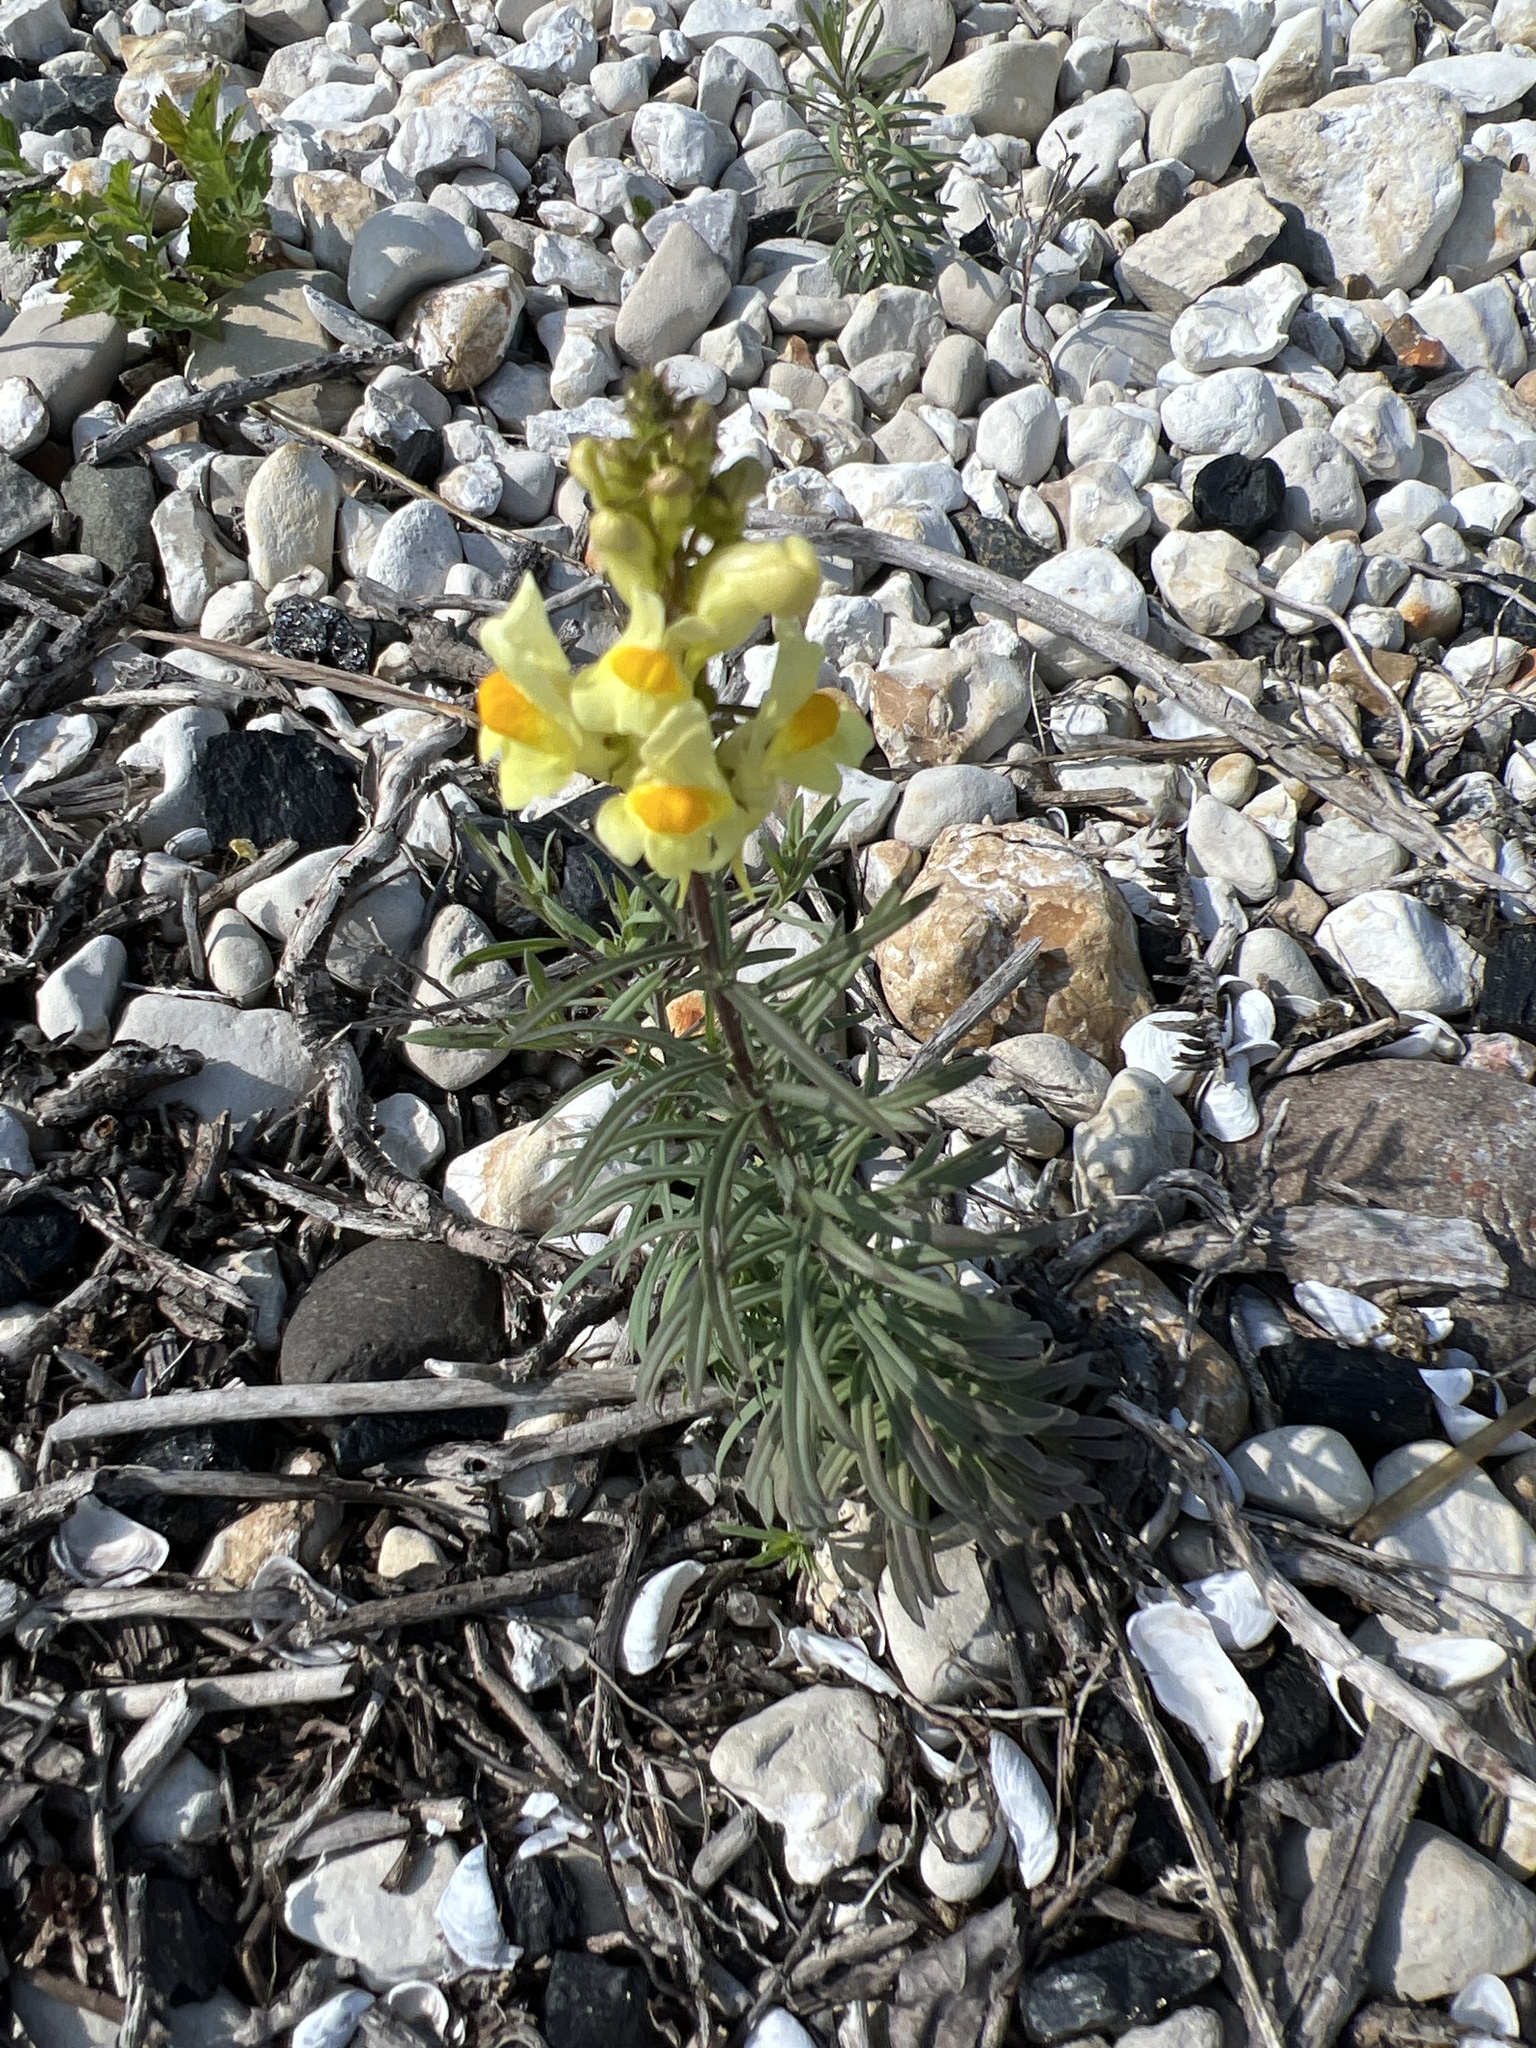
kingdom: Plantae
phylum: Tracheophyta
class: Magnoliopsida
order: Lamiales
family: Plantaginaceae
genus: Linaria
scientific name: Linaria vulgaris
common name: Butter and eggs
